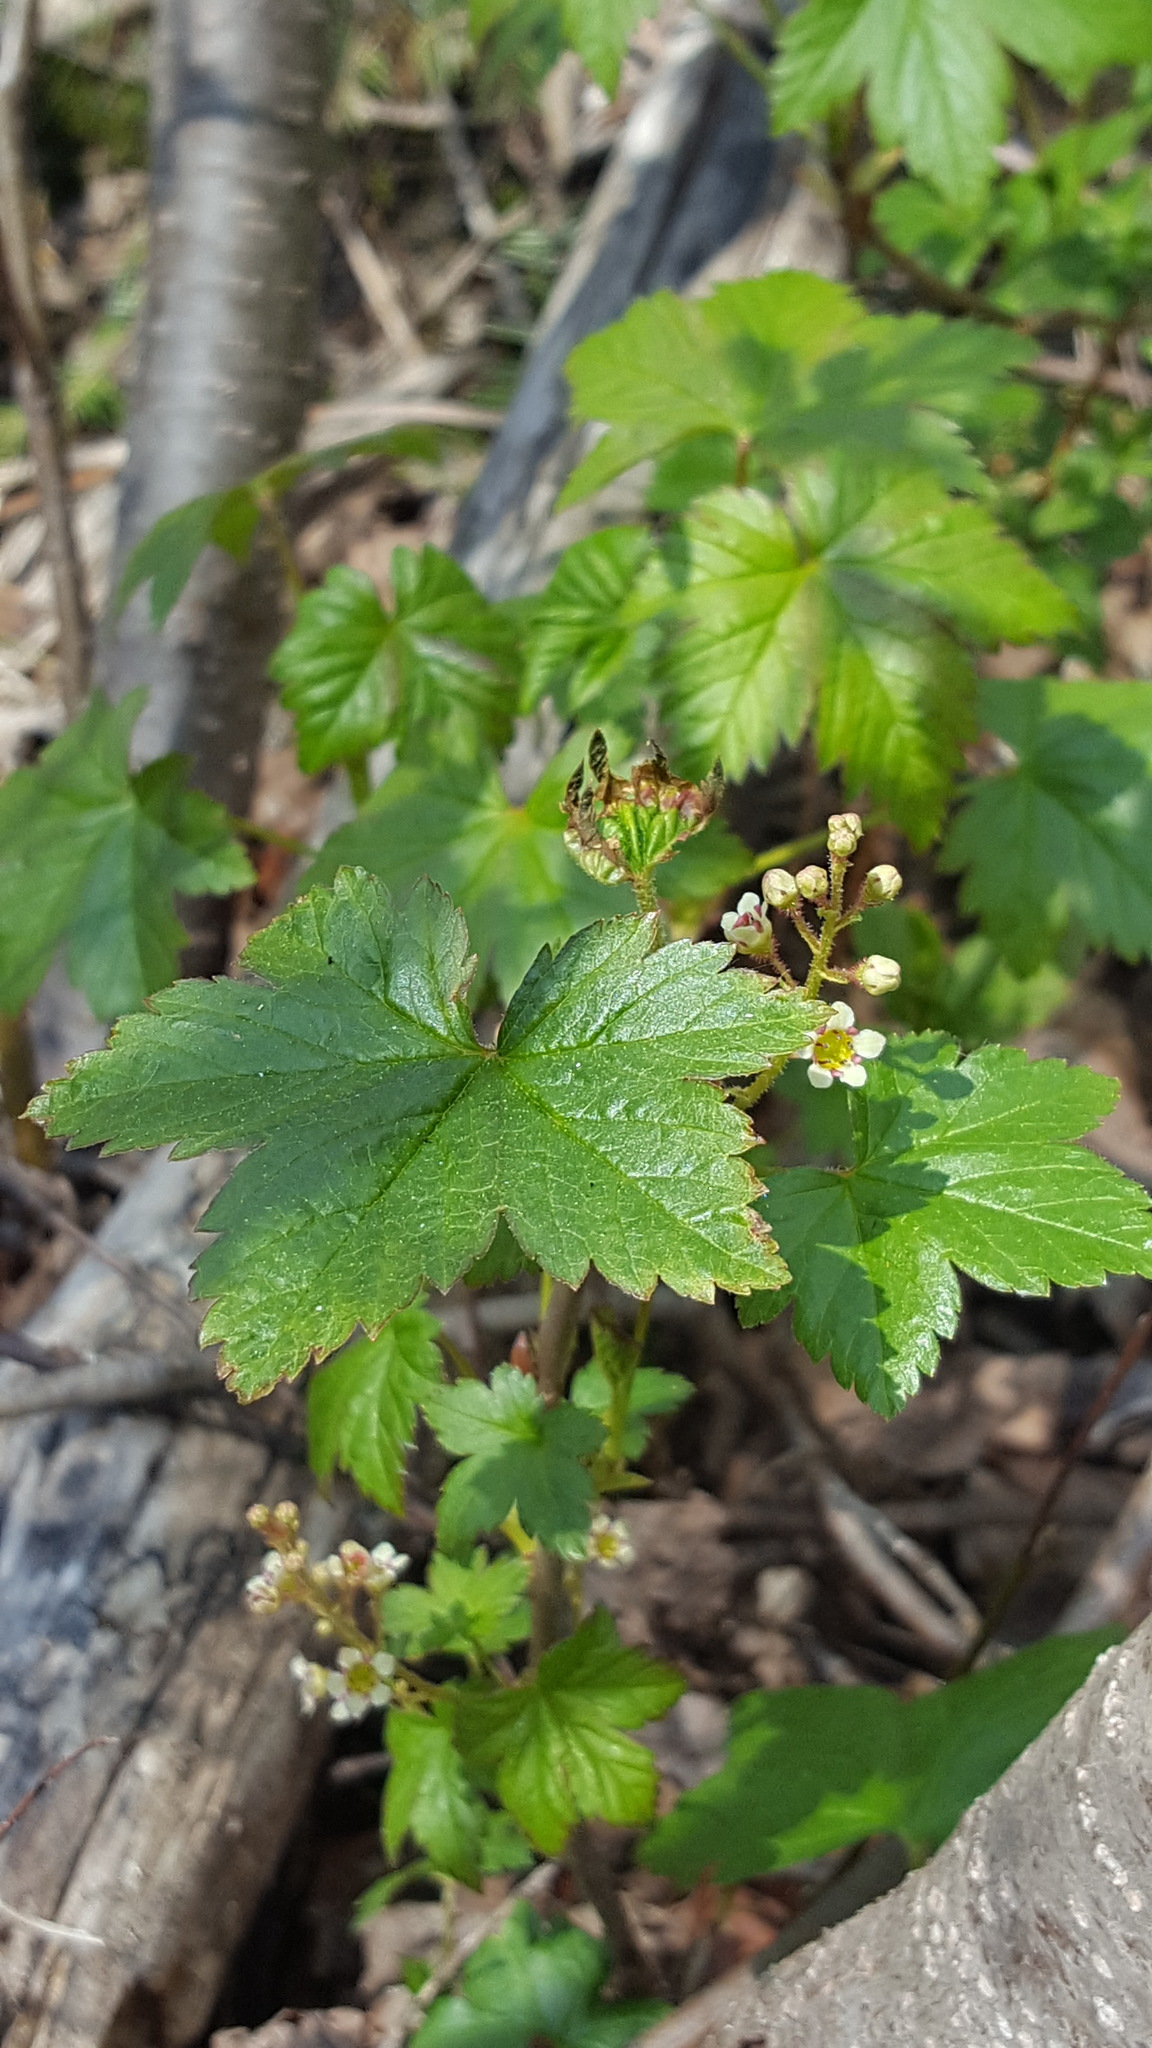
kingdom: Plantae
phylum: Tracheophyta
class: Magnoliopsida
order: Saxifragales
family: Grossulariaceae
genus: Ribes
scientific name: Ribes glandulosum
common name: Skunk currant
